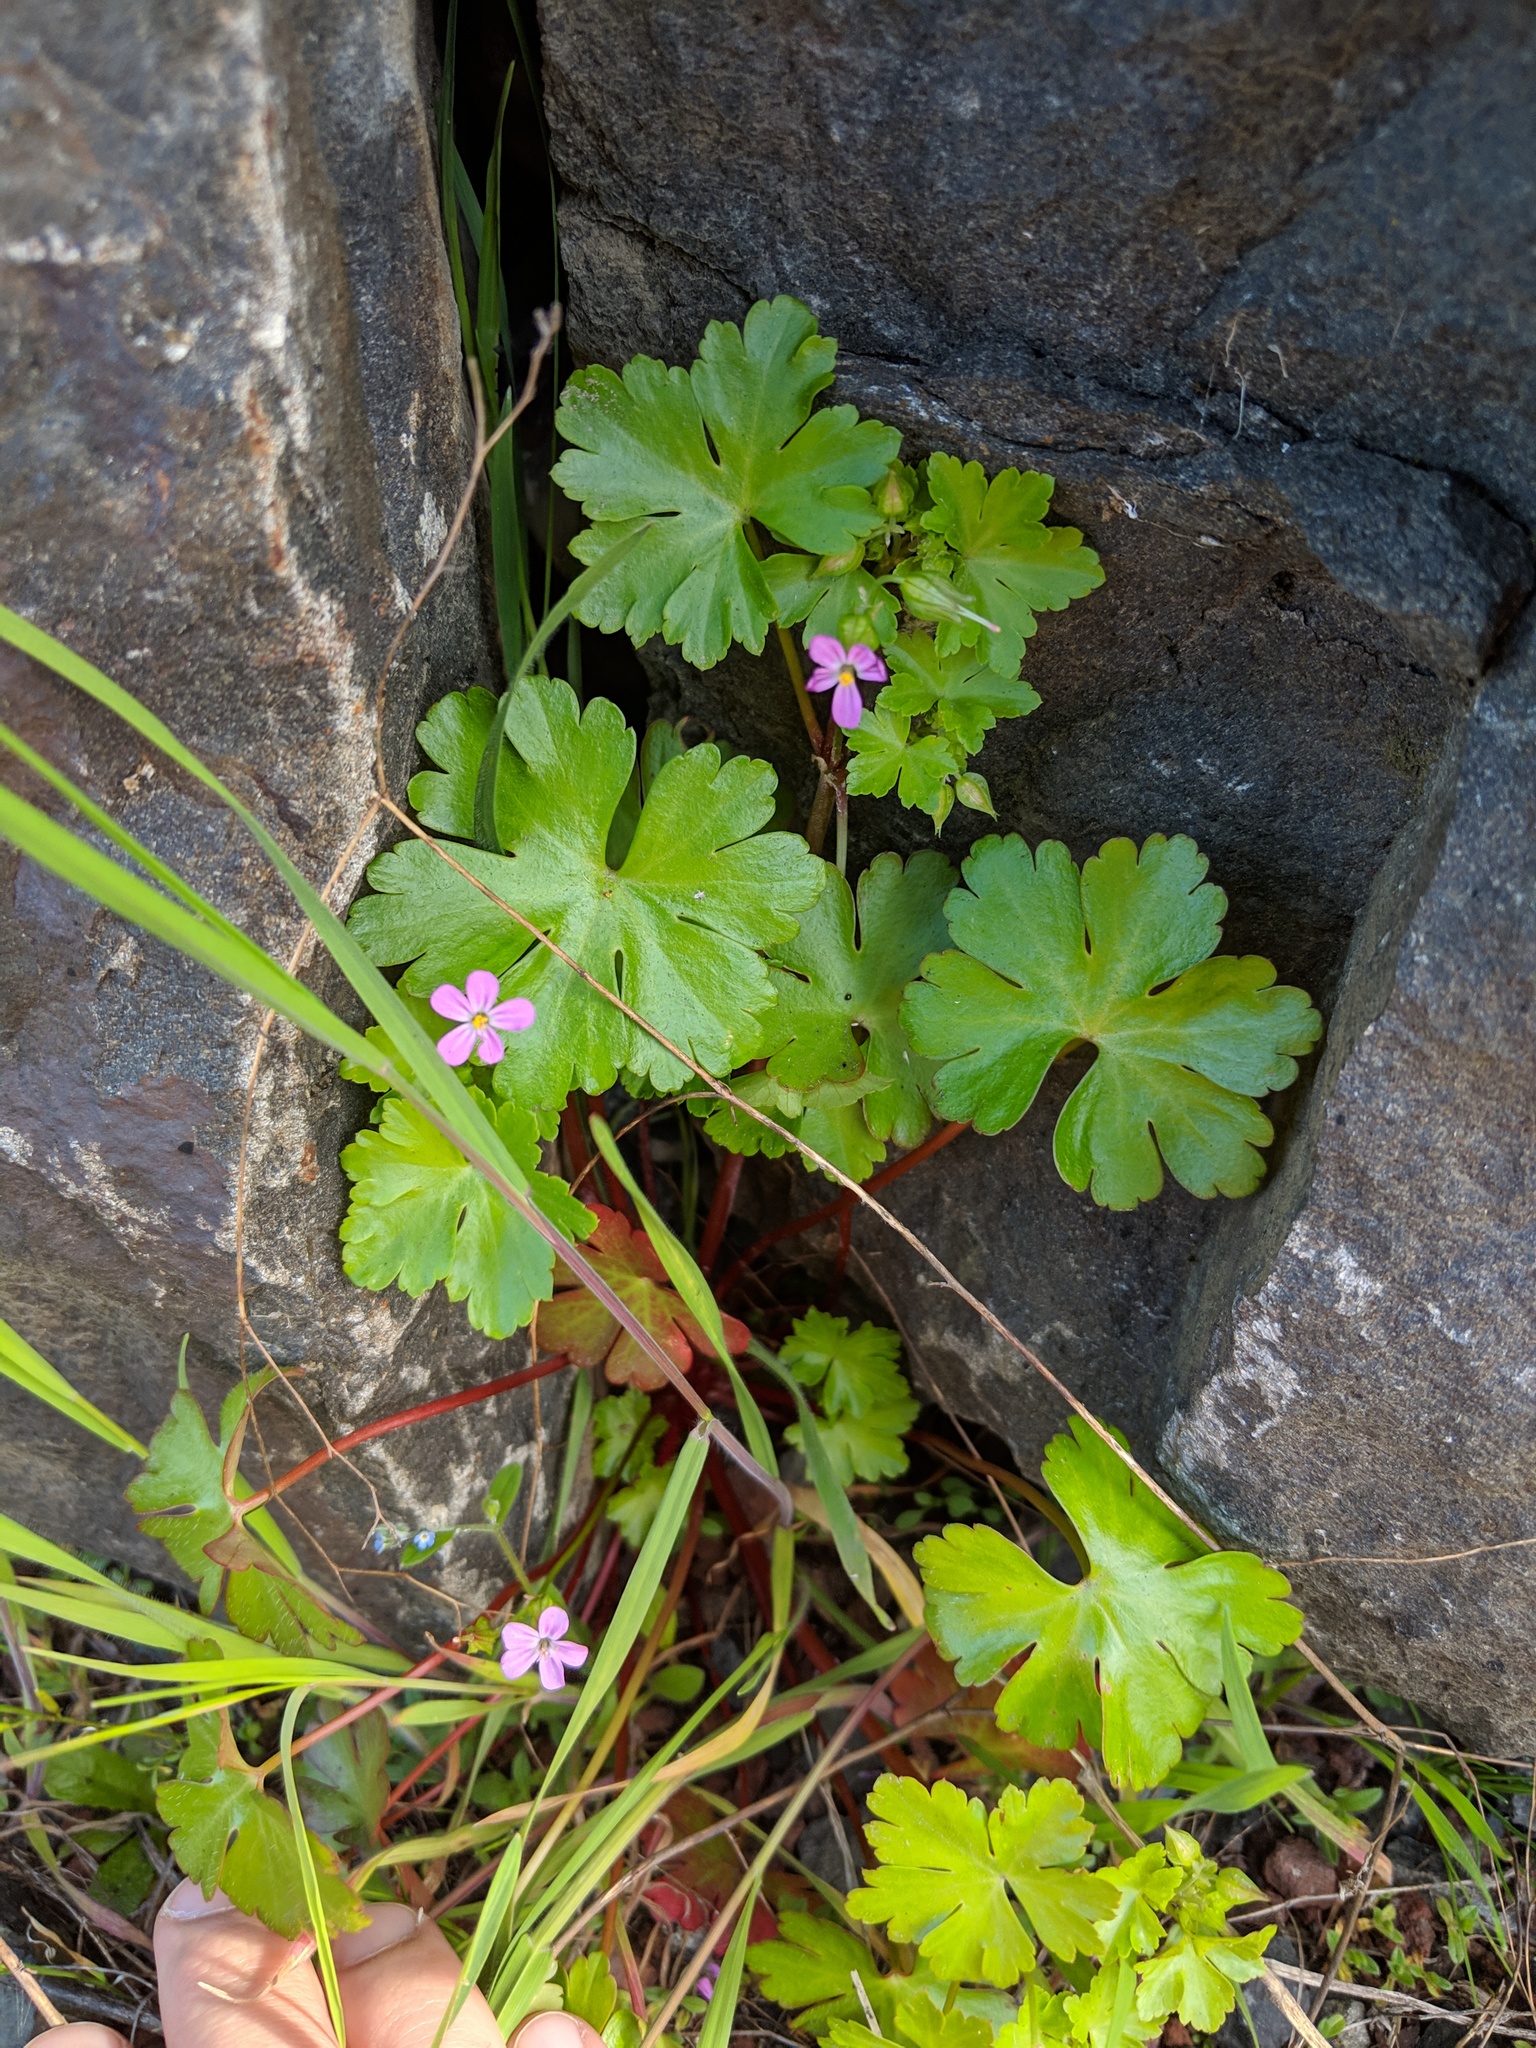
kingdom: Plantae
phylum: Tracheophyta
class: Magnoliopsida
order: Geraniales
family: Geraniaceae
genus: Geranium
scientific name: Geranium lucidum
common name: Shining crane's-bill
